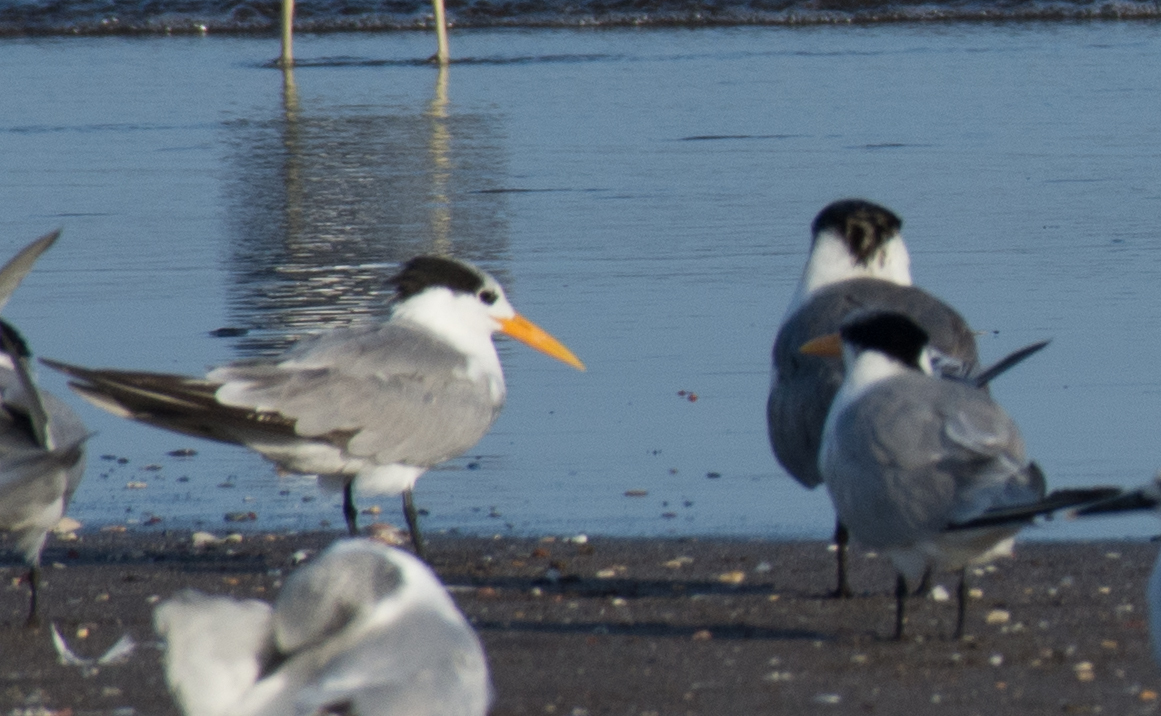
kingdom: Animalia
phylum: Chordata
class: Aves
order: Charadriiformes
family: Laridae
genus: Thalasseus
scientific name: Thalasseus bengalensis
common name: Lesser crested tern
